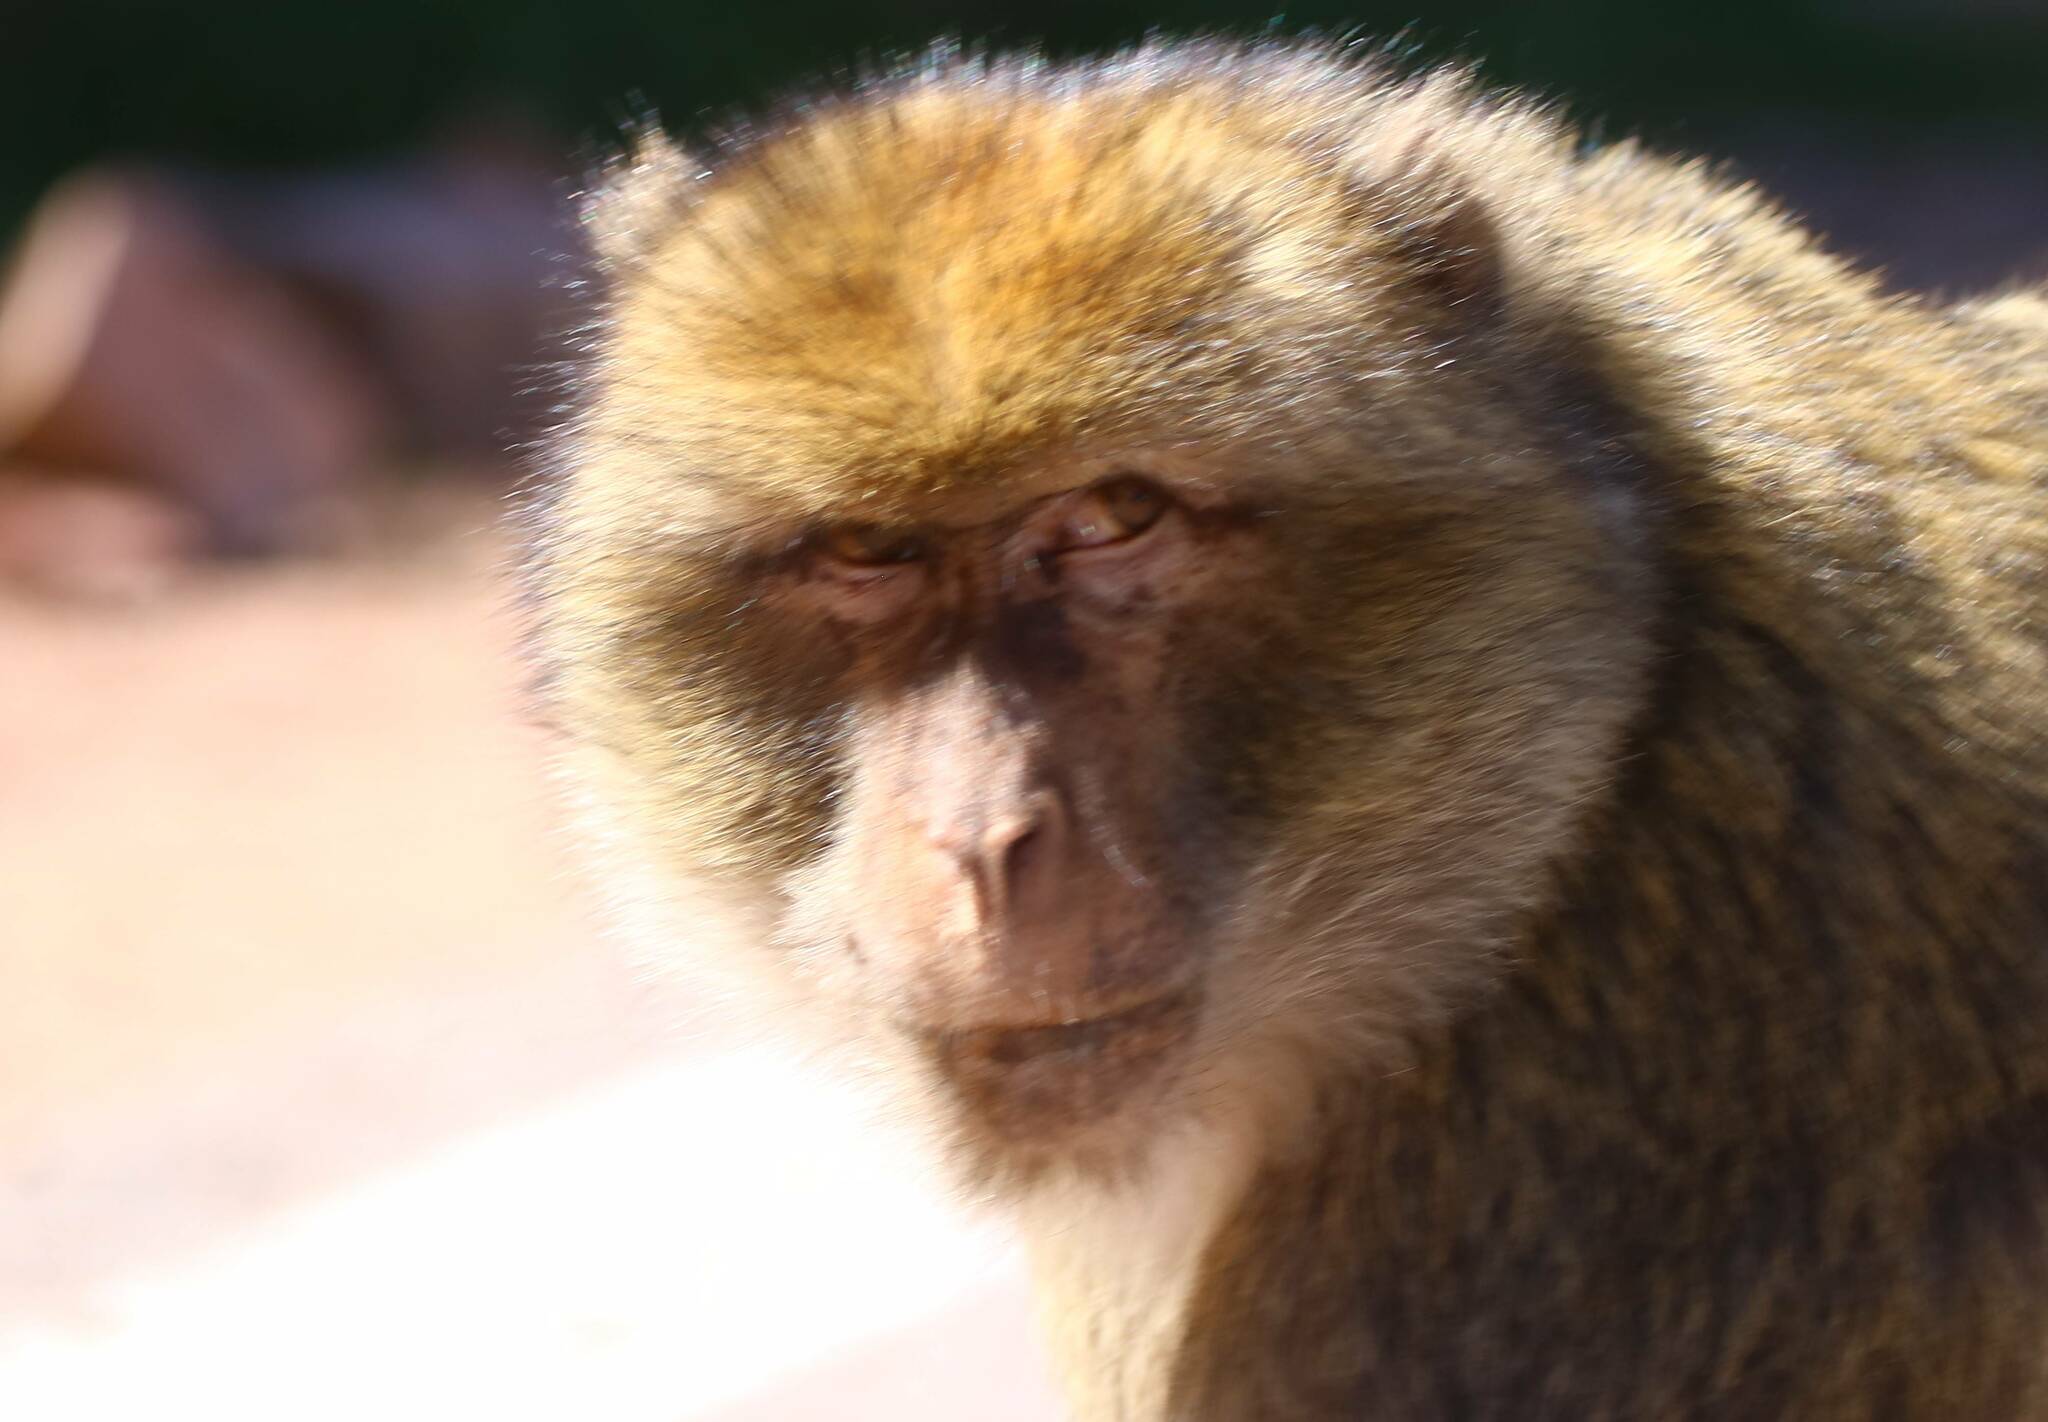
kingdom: Animalia
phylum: Chordata
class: Mammalia
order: Primates
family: Cercopithecidae
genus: Macaca
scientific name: Macaca sylvanus
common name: Barbary macaque
